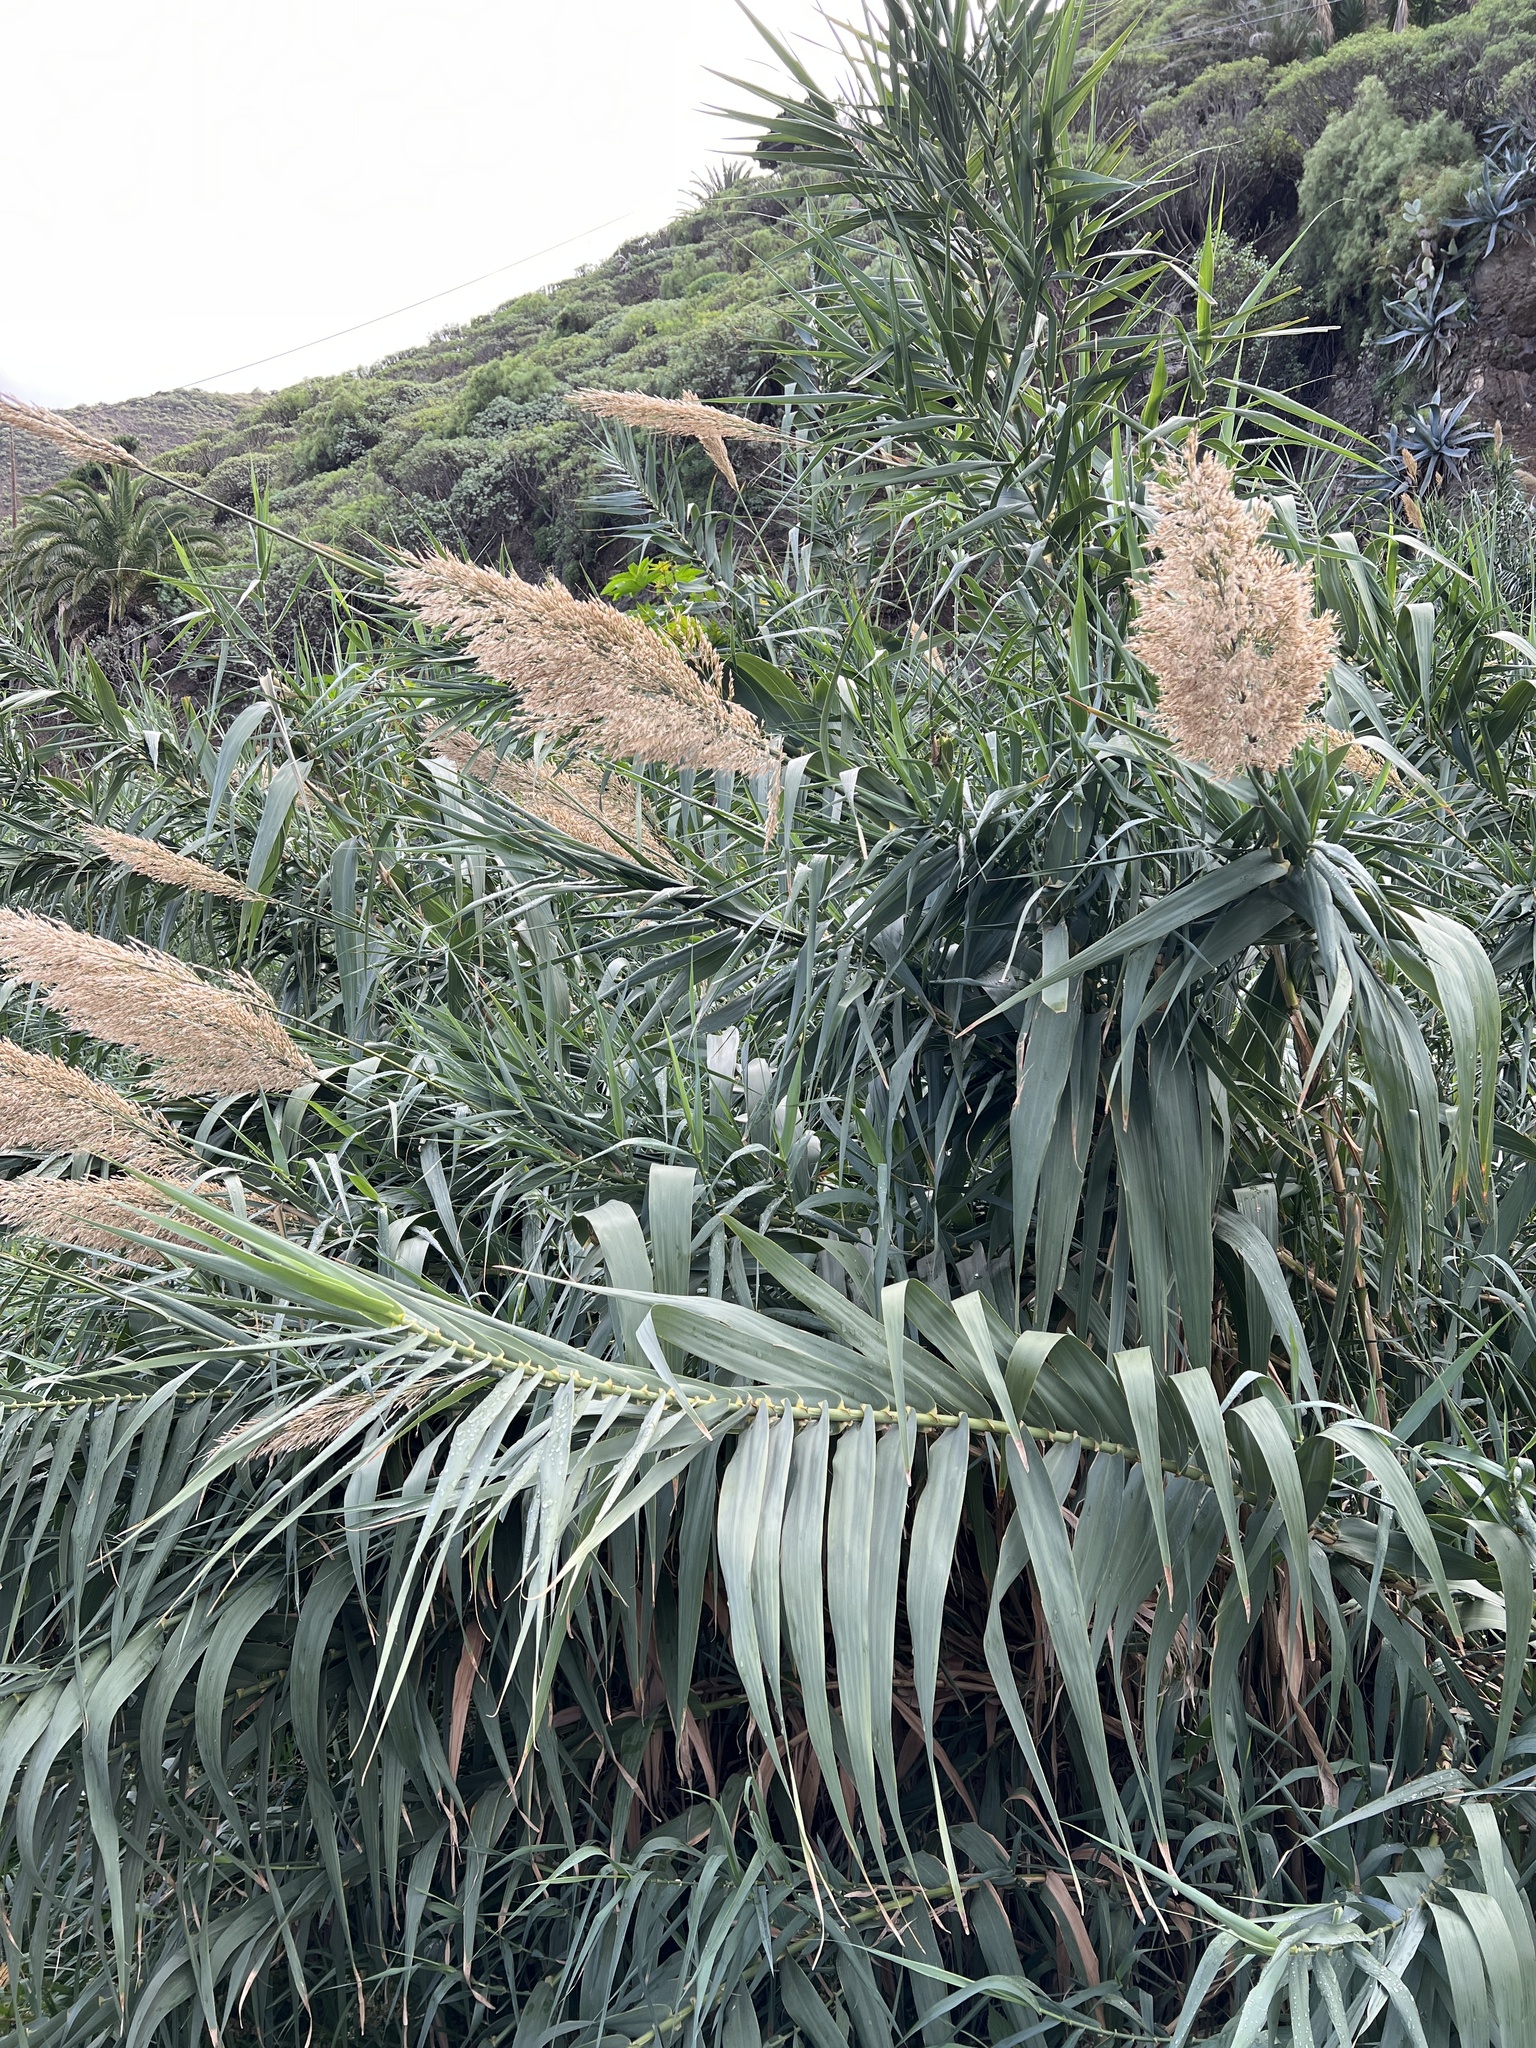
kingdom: Plantae
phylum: Tracheophyta
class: Liliopsida
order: Poales
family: Poaceae
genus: Arundo
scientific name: Arundo donax
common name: Giant reed
